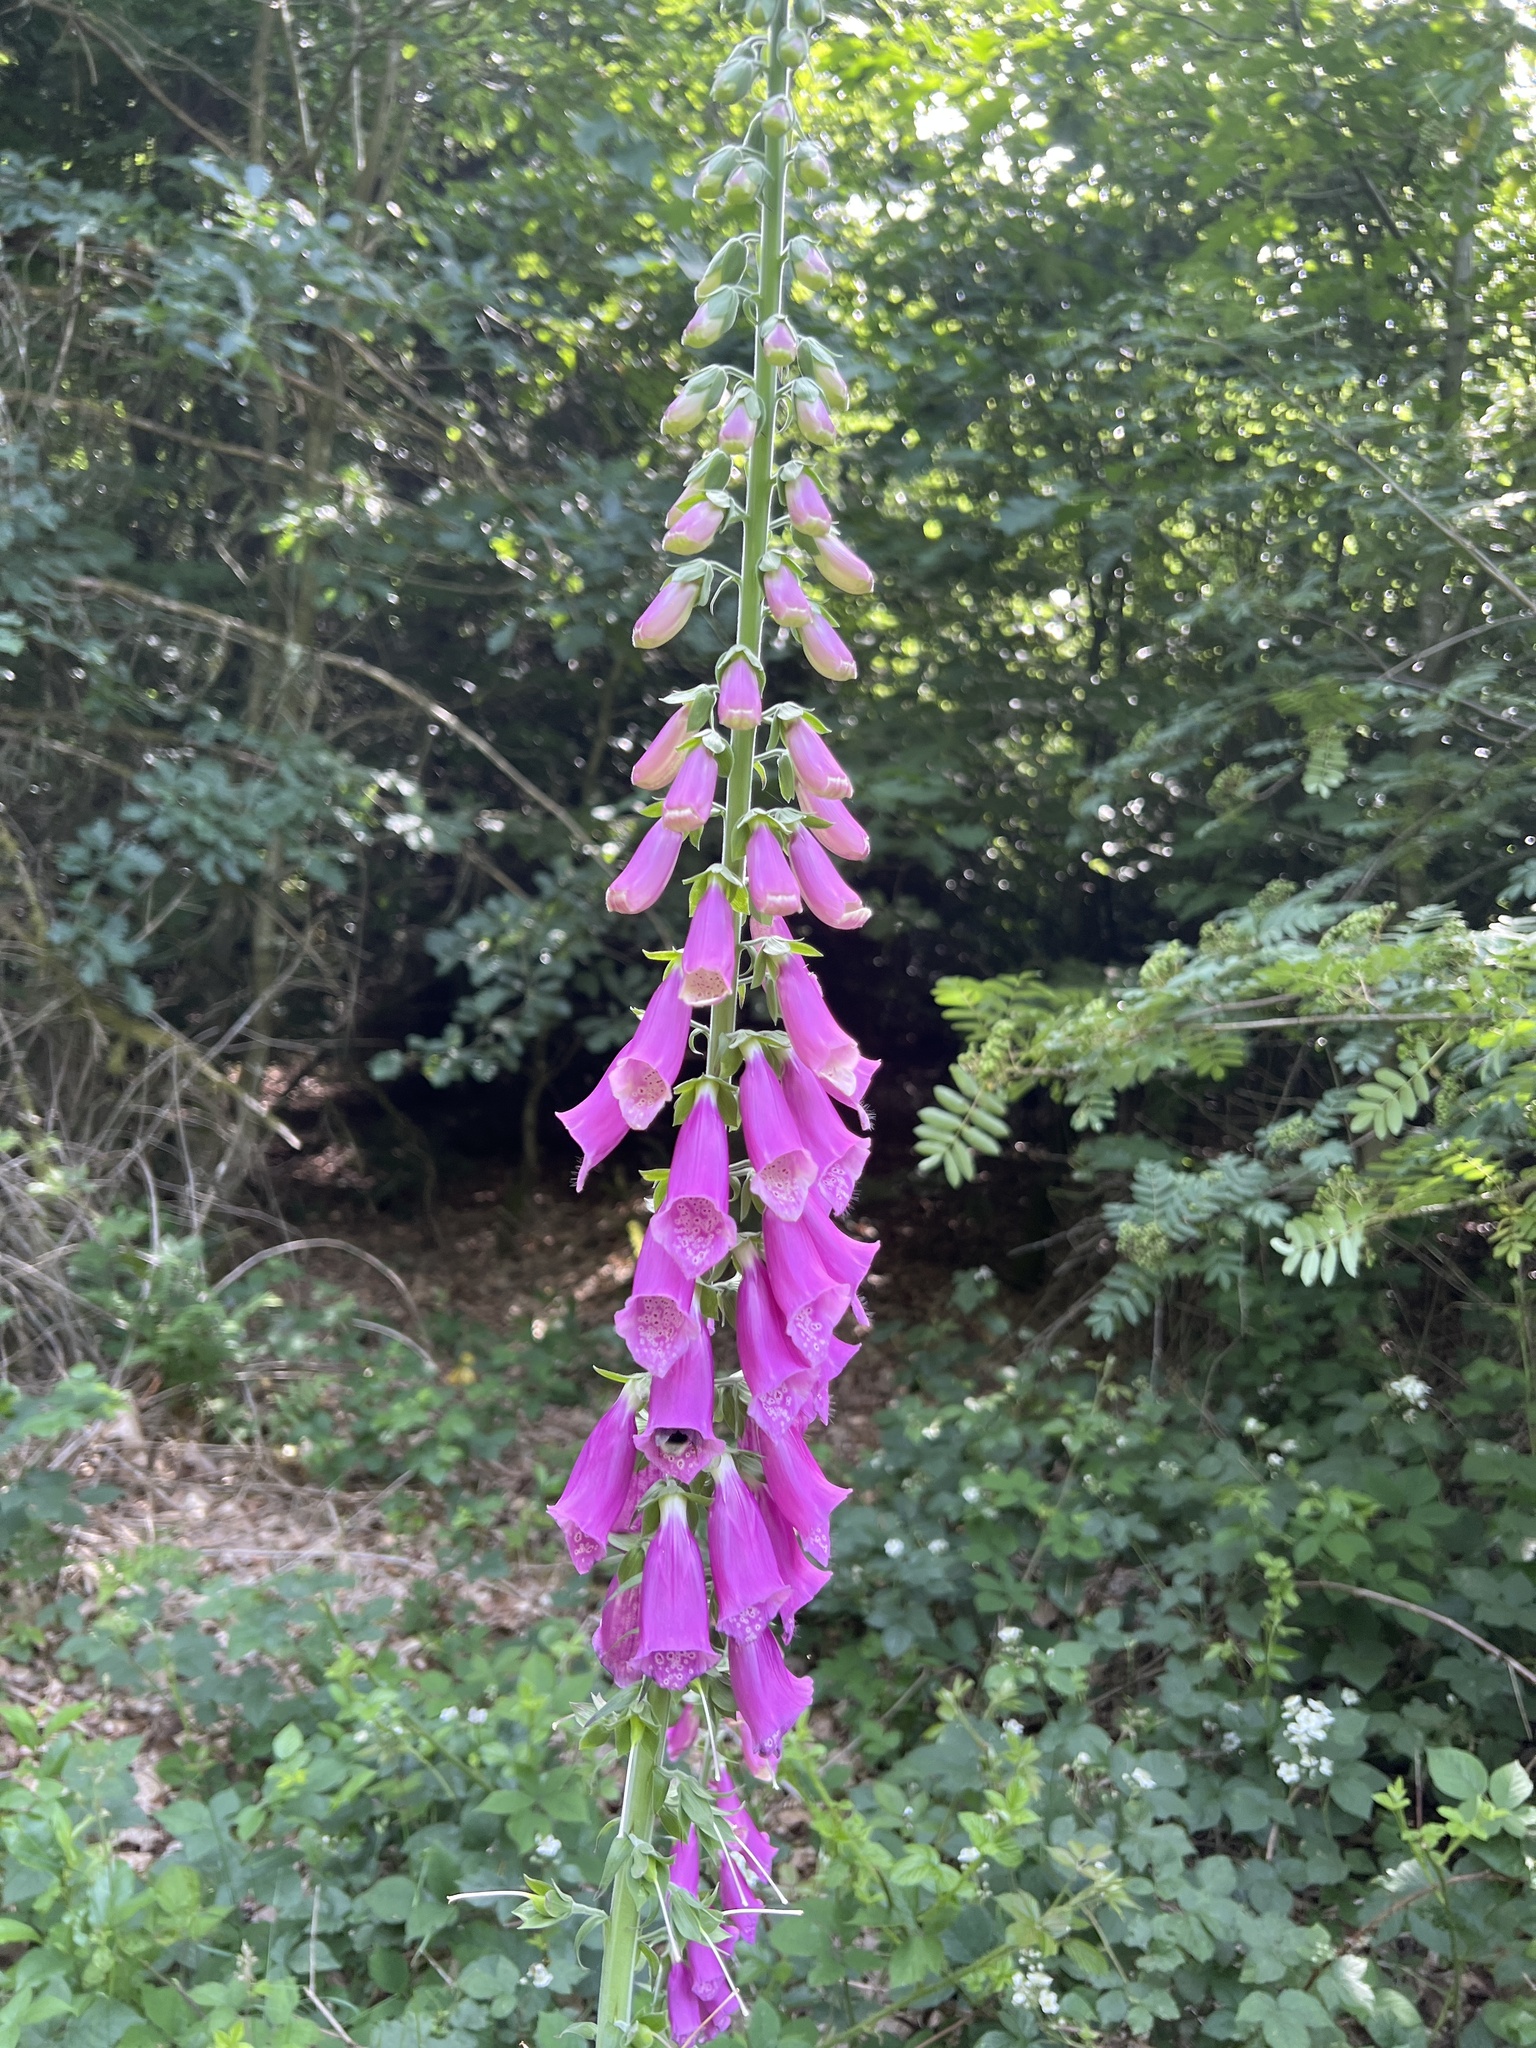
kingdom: Plantae
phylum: Tracheophyta
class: Magnoliopsida
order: Lamiales
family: Plantaginaceae
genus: Digitalis
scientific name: Digitalis purpurea
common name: Foxglove
